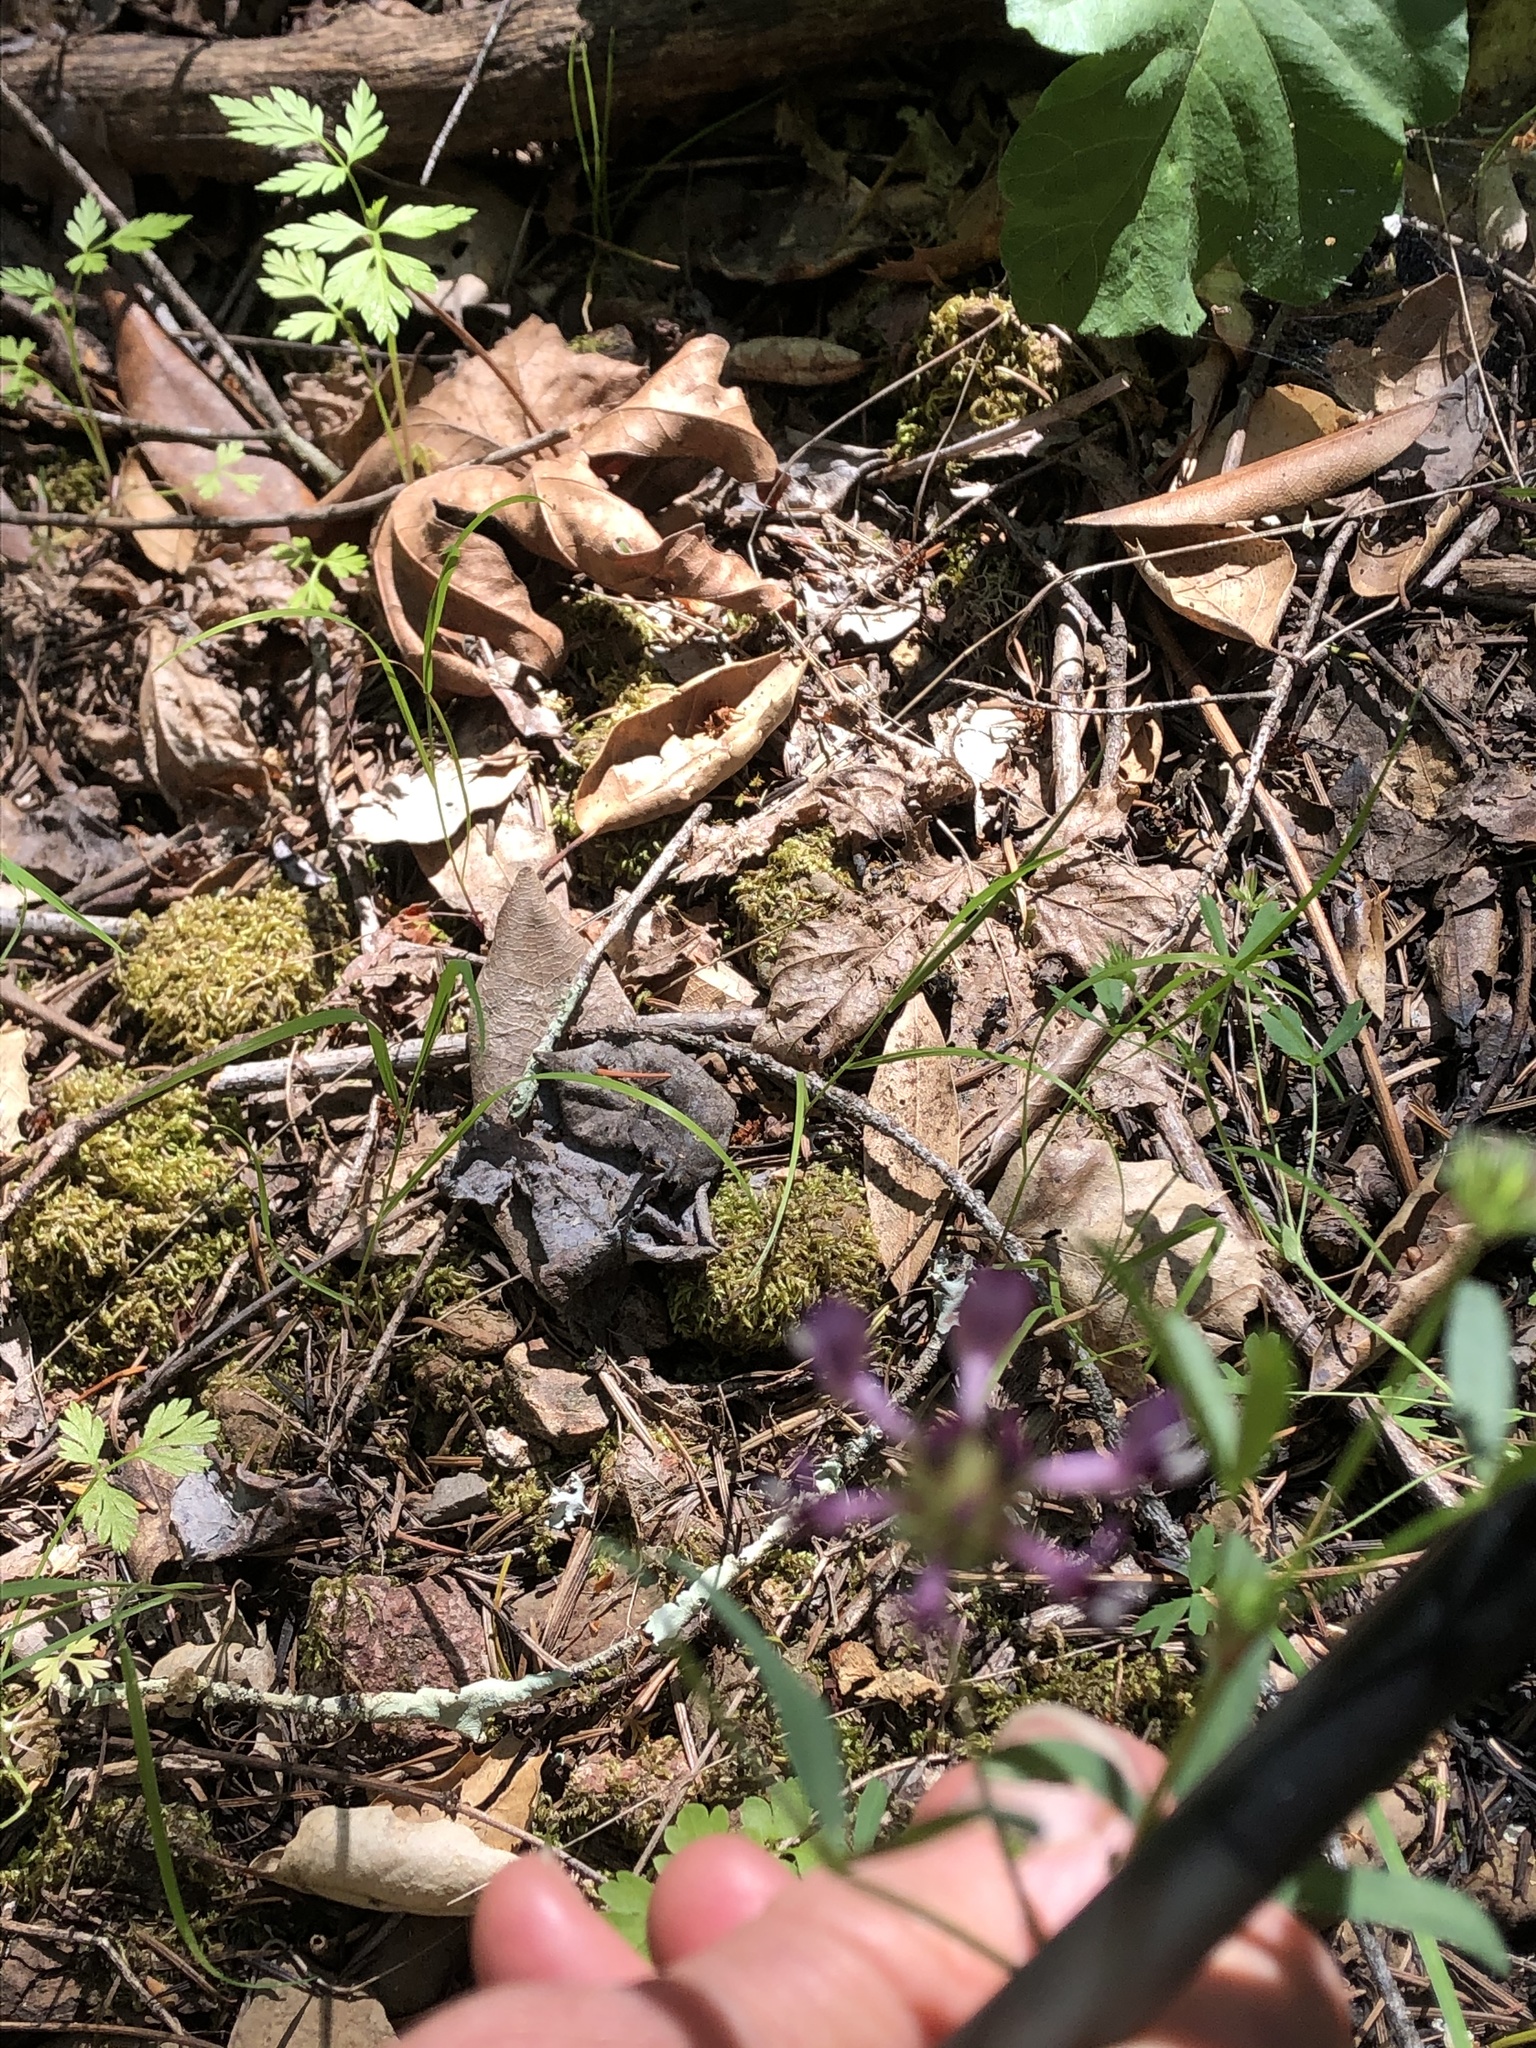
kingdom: Plantae
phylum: Tracheophyta
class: Magnoliopsida
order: Fabales
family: Fabaceae
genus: Trifolium
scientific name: Trifolium willdenovii
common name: Tomcat clover
